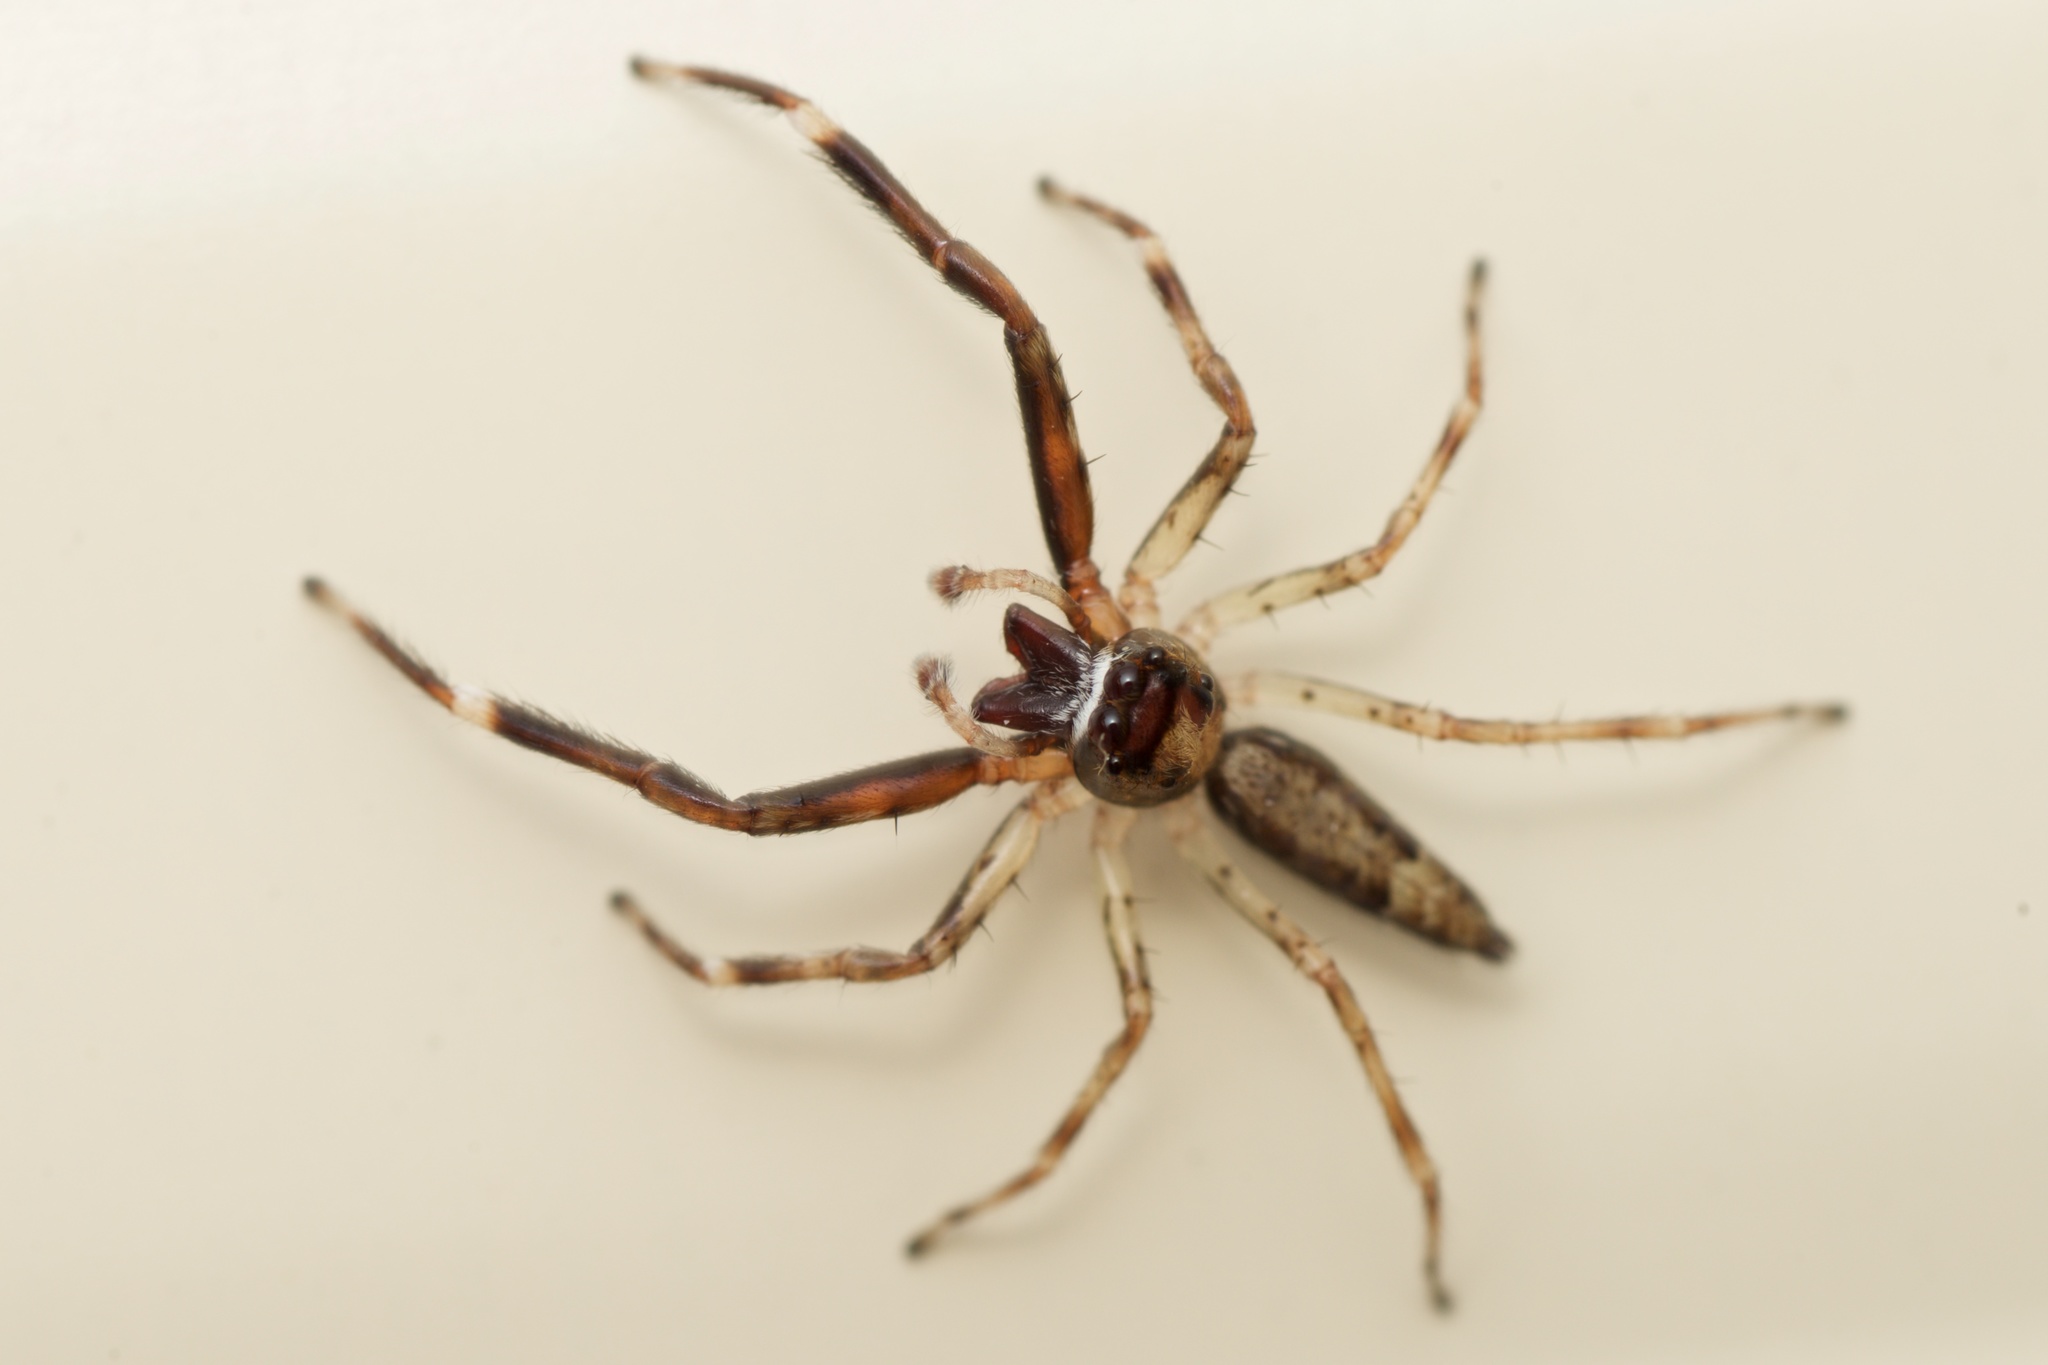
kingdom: Animalia
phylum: Arthropoda
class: Arachnida
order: Araneae
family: Salticidae
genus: Helpis
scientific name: Helpis minitabunda
